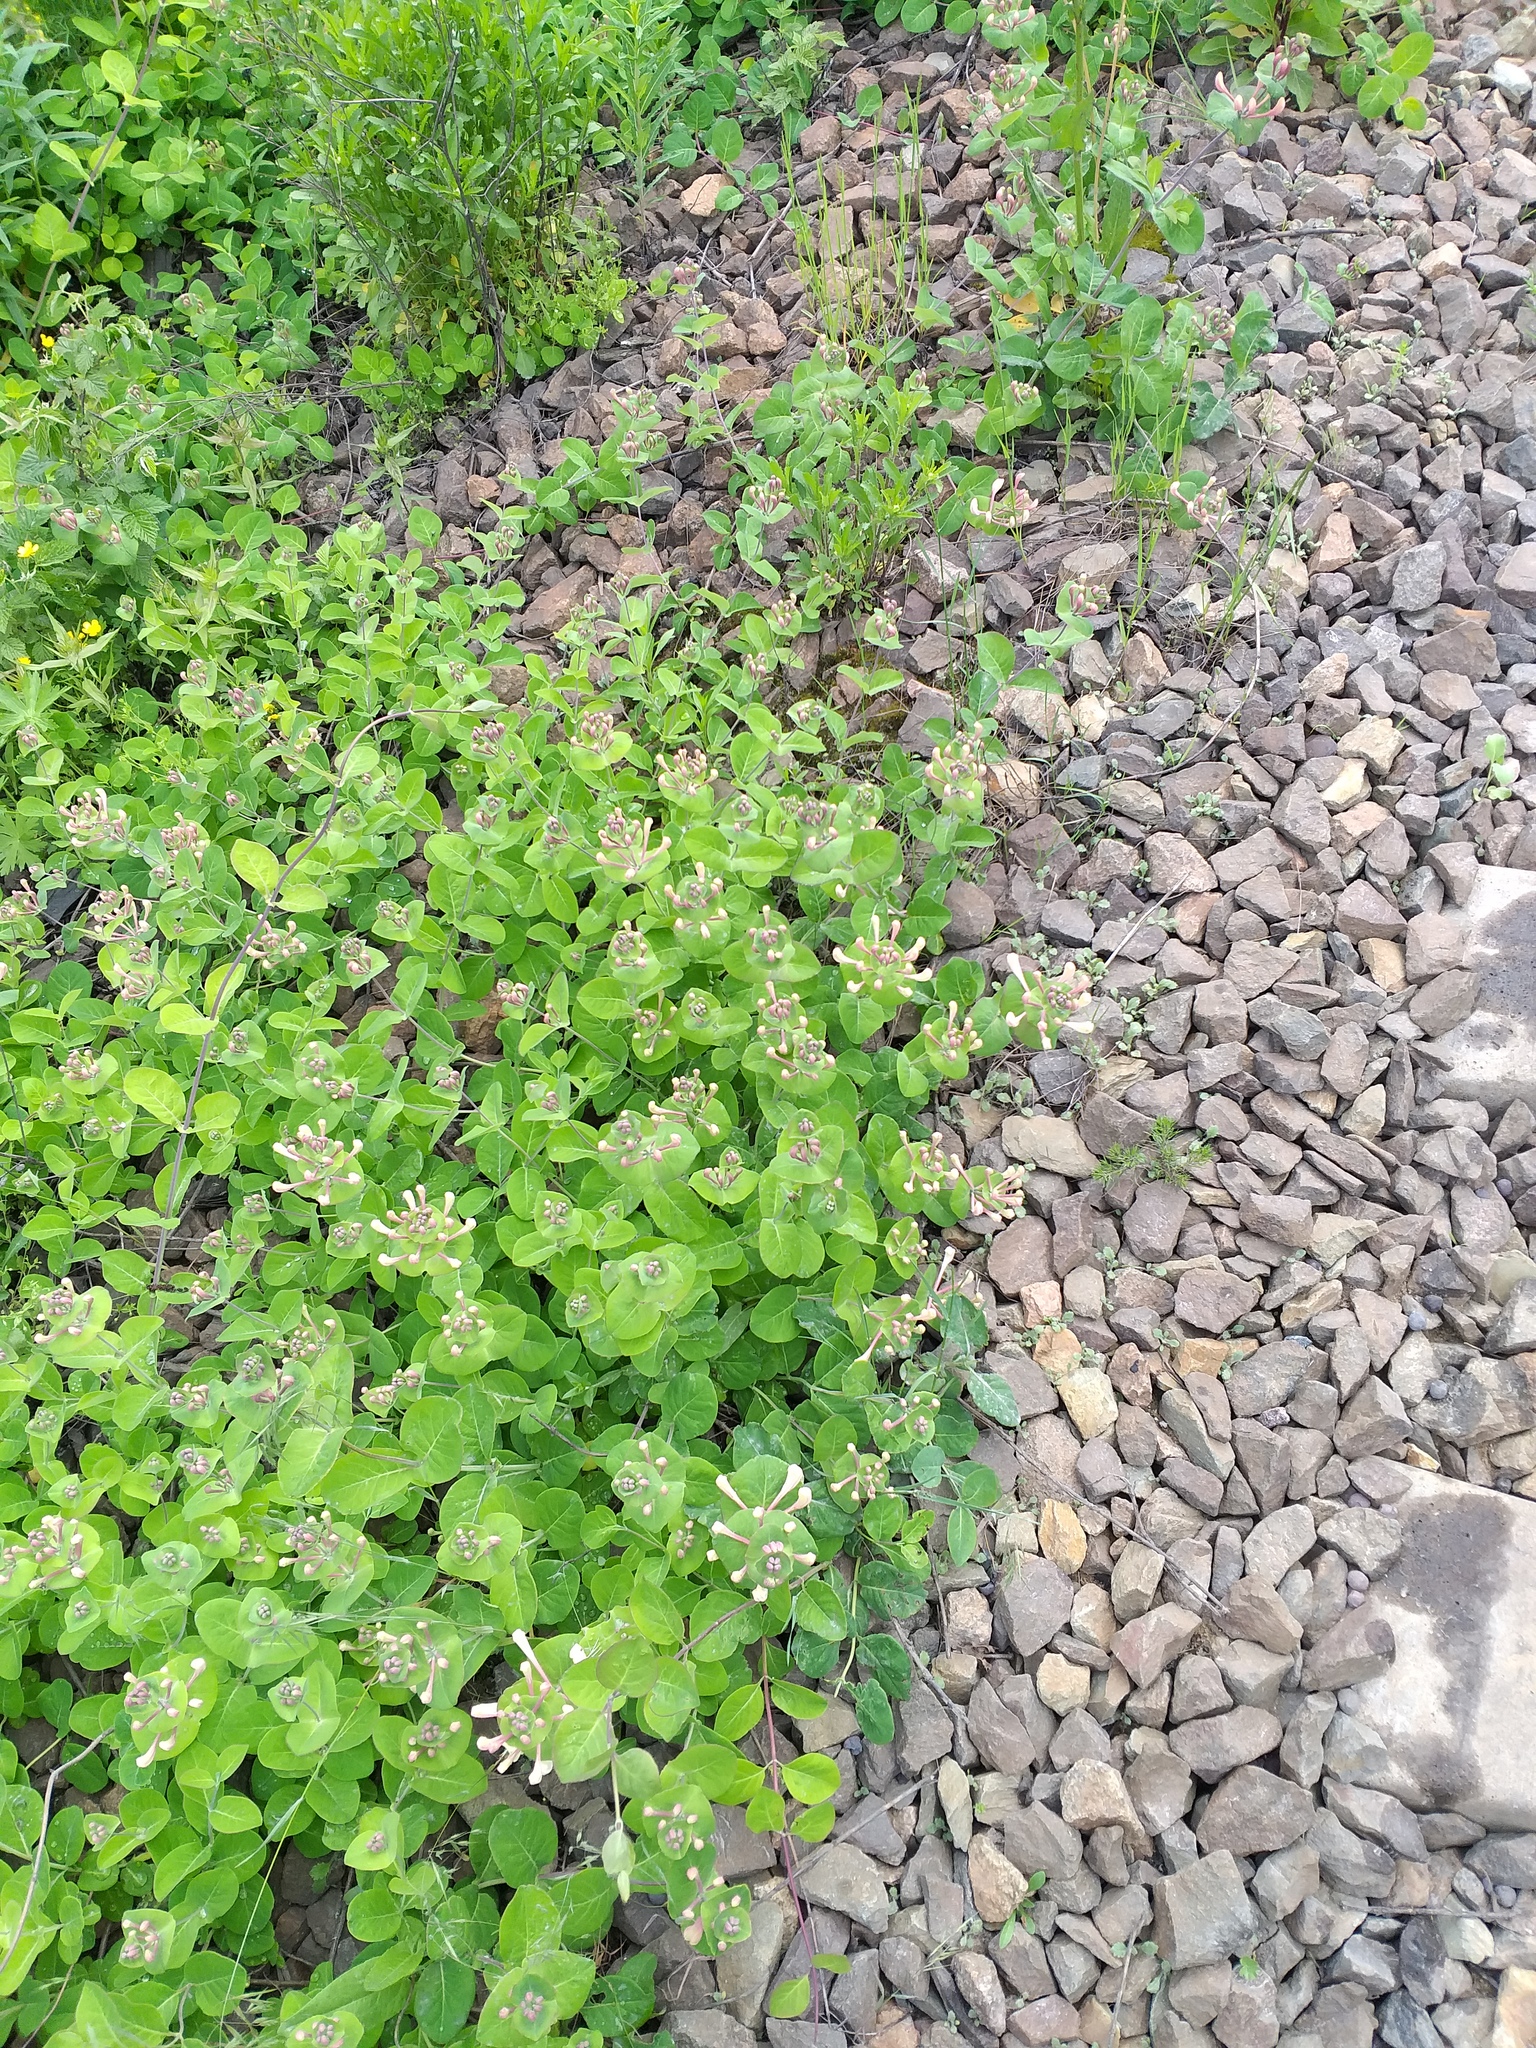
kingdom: Plantae
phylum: Tracheophyta
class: Magnoliopsida
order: Dipsacales
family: Caprifoliaceae
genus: Lonicera
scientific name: Lonicera caprifolium
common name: Perfoliate honeysuckle
